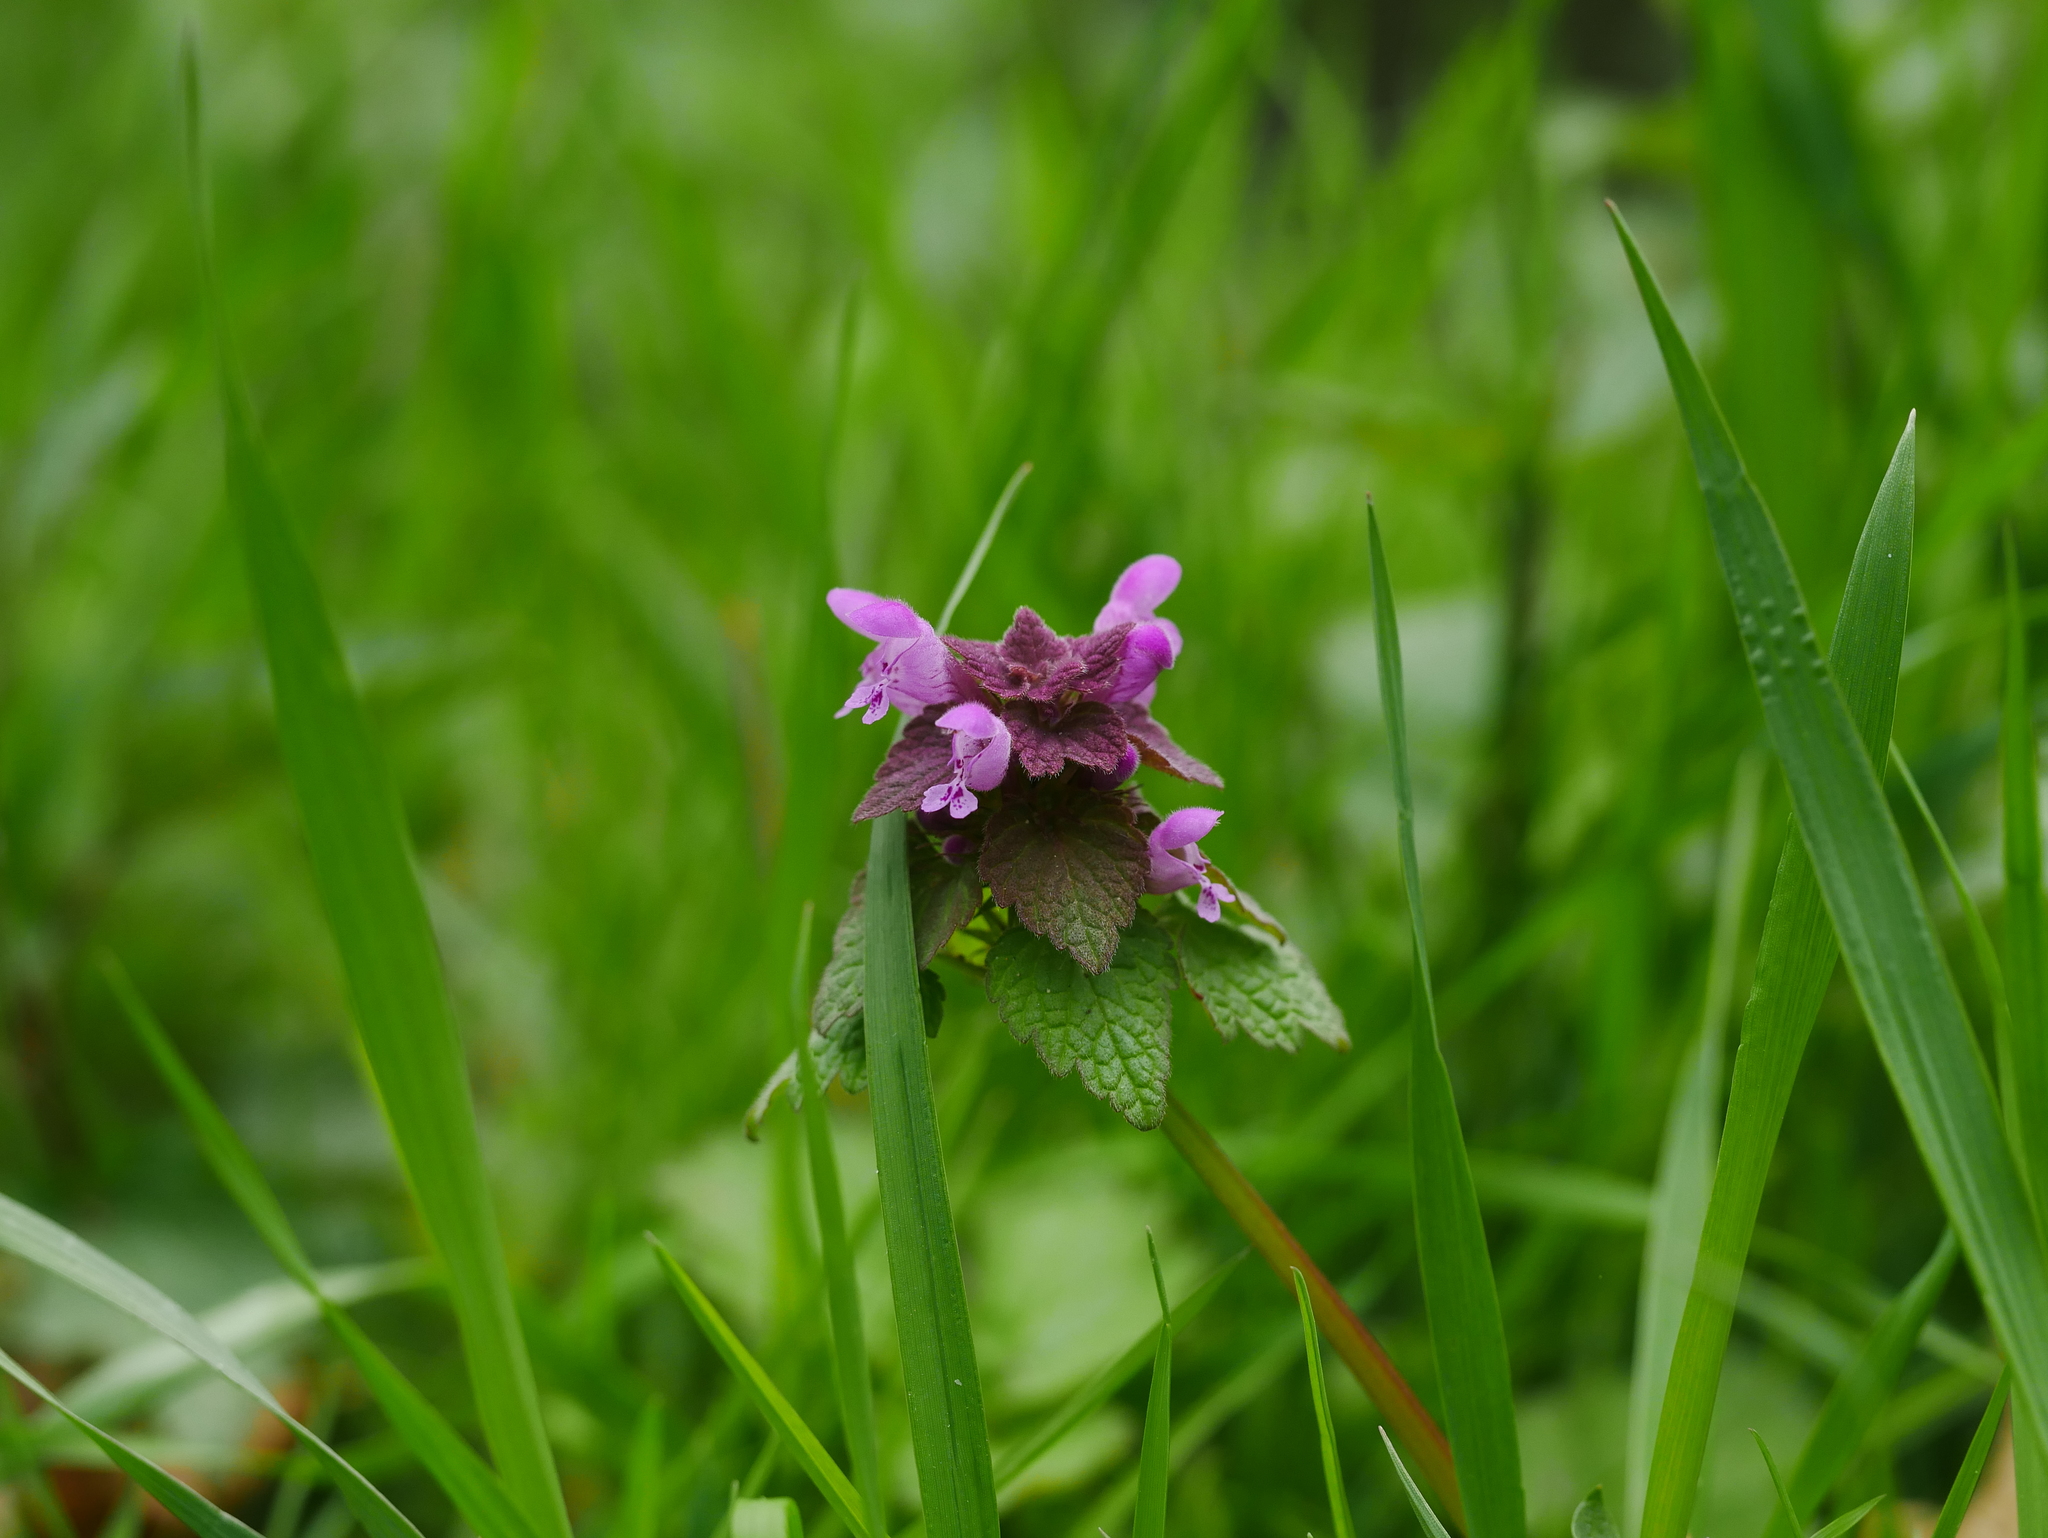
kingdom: Plantae
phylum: Tracheophyta
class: Magnoliopsida
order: Lamiales
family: Lamiaceae
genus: Lamium
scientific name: Lamium purpureum
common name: Red dead-nettle
